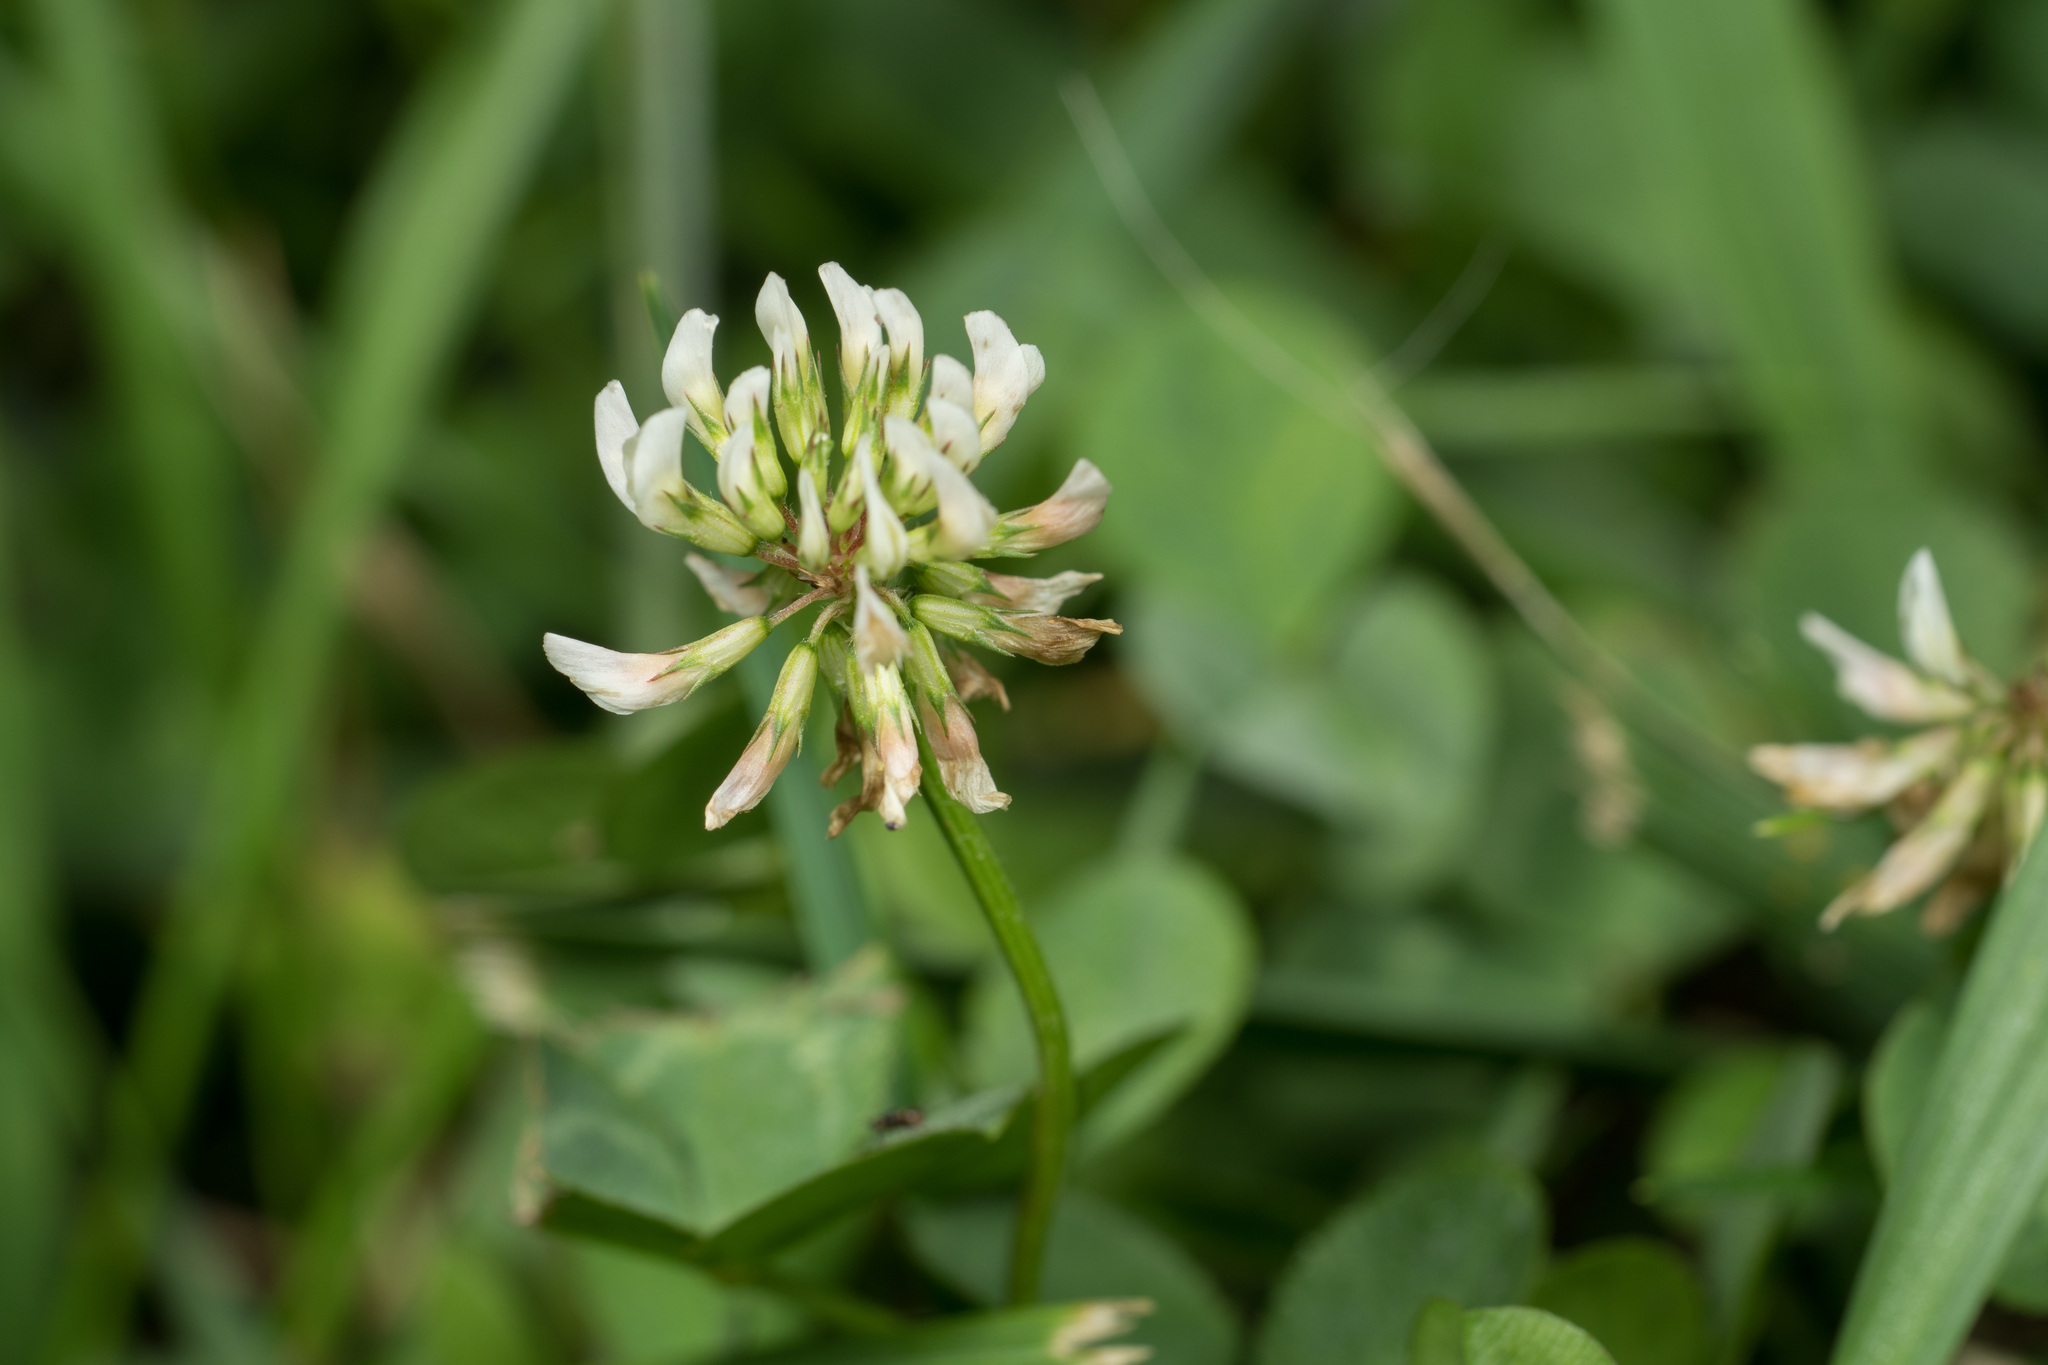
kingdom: Plantae
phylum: Tracheophyta
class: Magnoliopsida
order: Fabales
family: Fabaceae
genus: Trifolium
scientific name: Trifolium repens
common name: White clover
